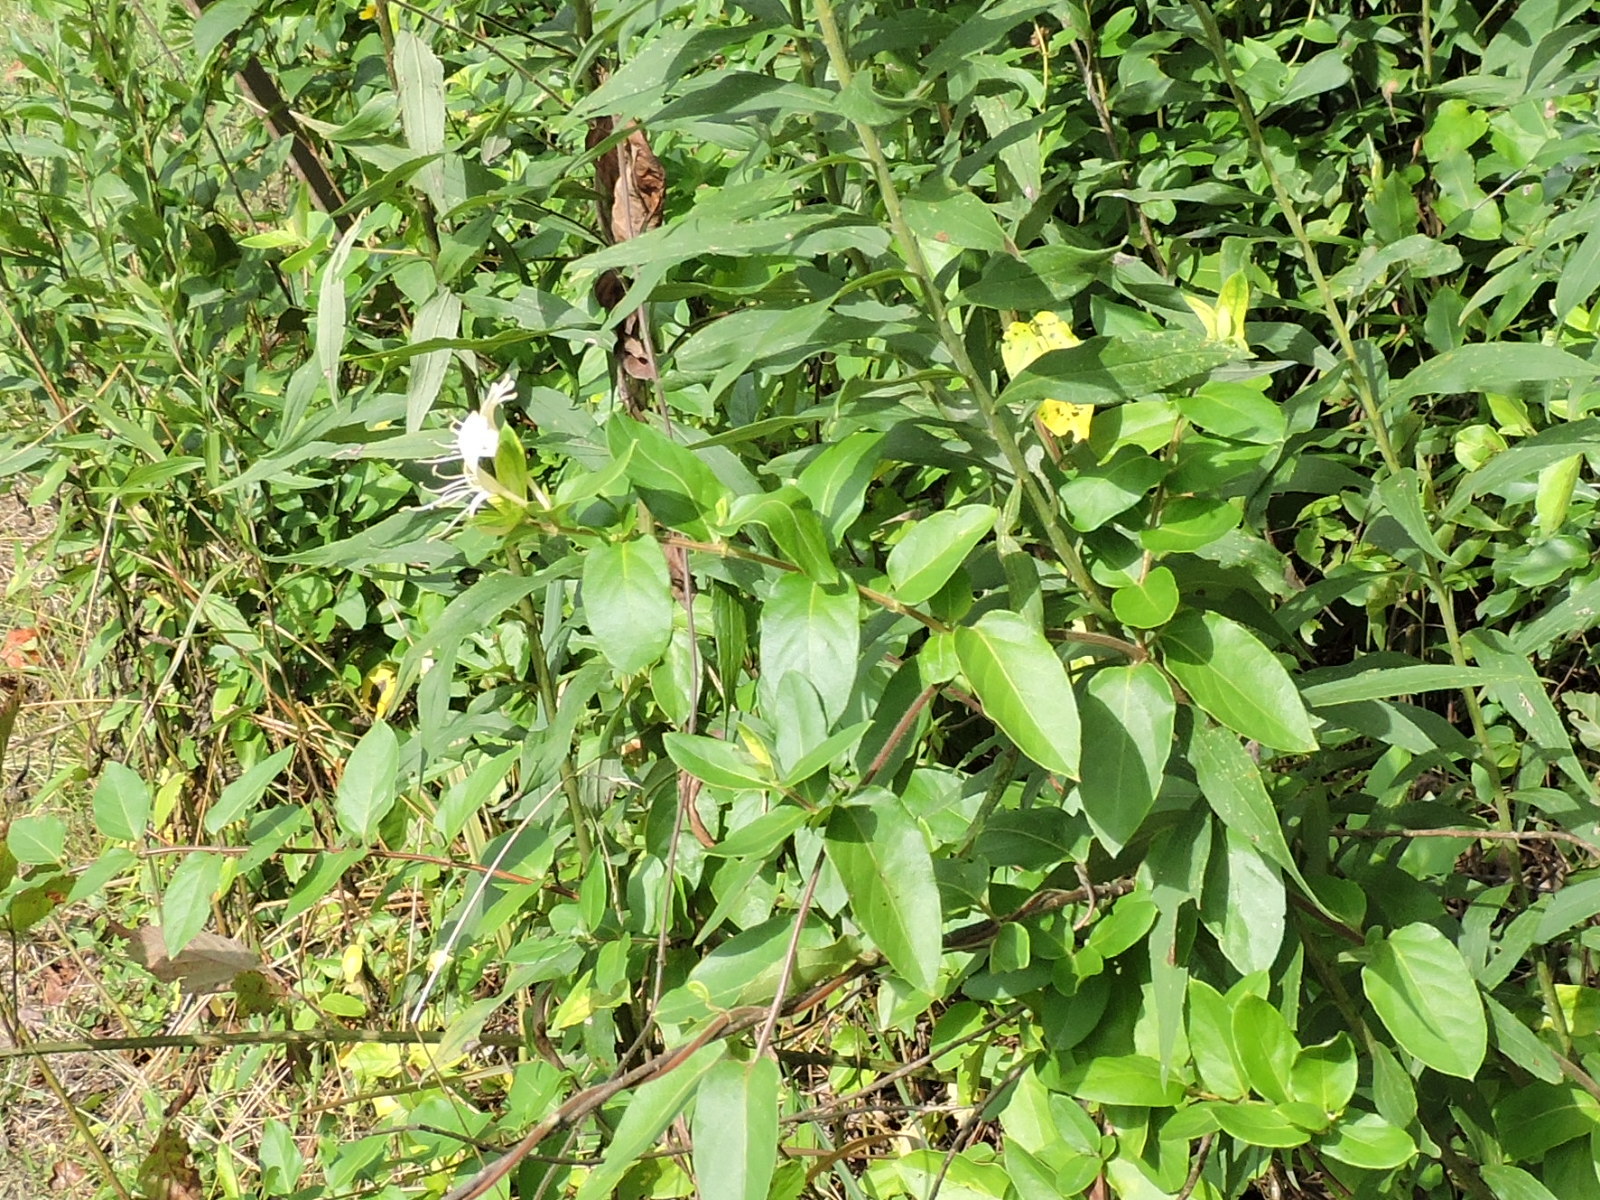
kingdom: Plantae
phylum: Tracheophyta
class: Magnoliopsida
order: Dipsacales
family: Caprifoliaceae
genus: Lonicera
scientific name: Lonicera japonica
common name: Japanese honeysuckle
